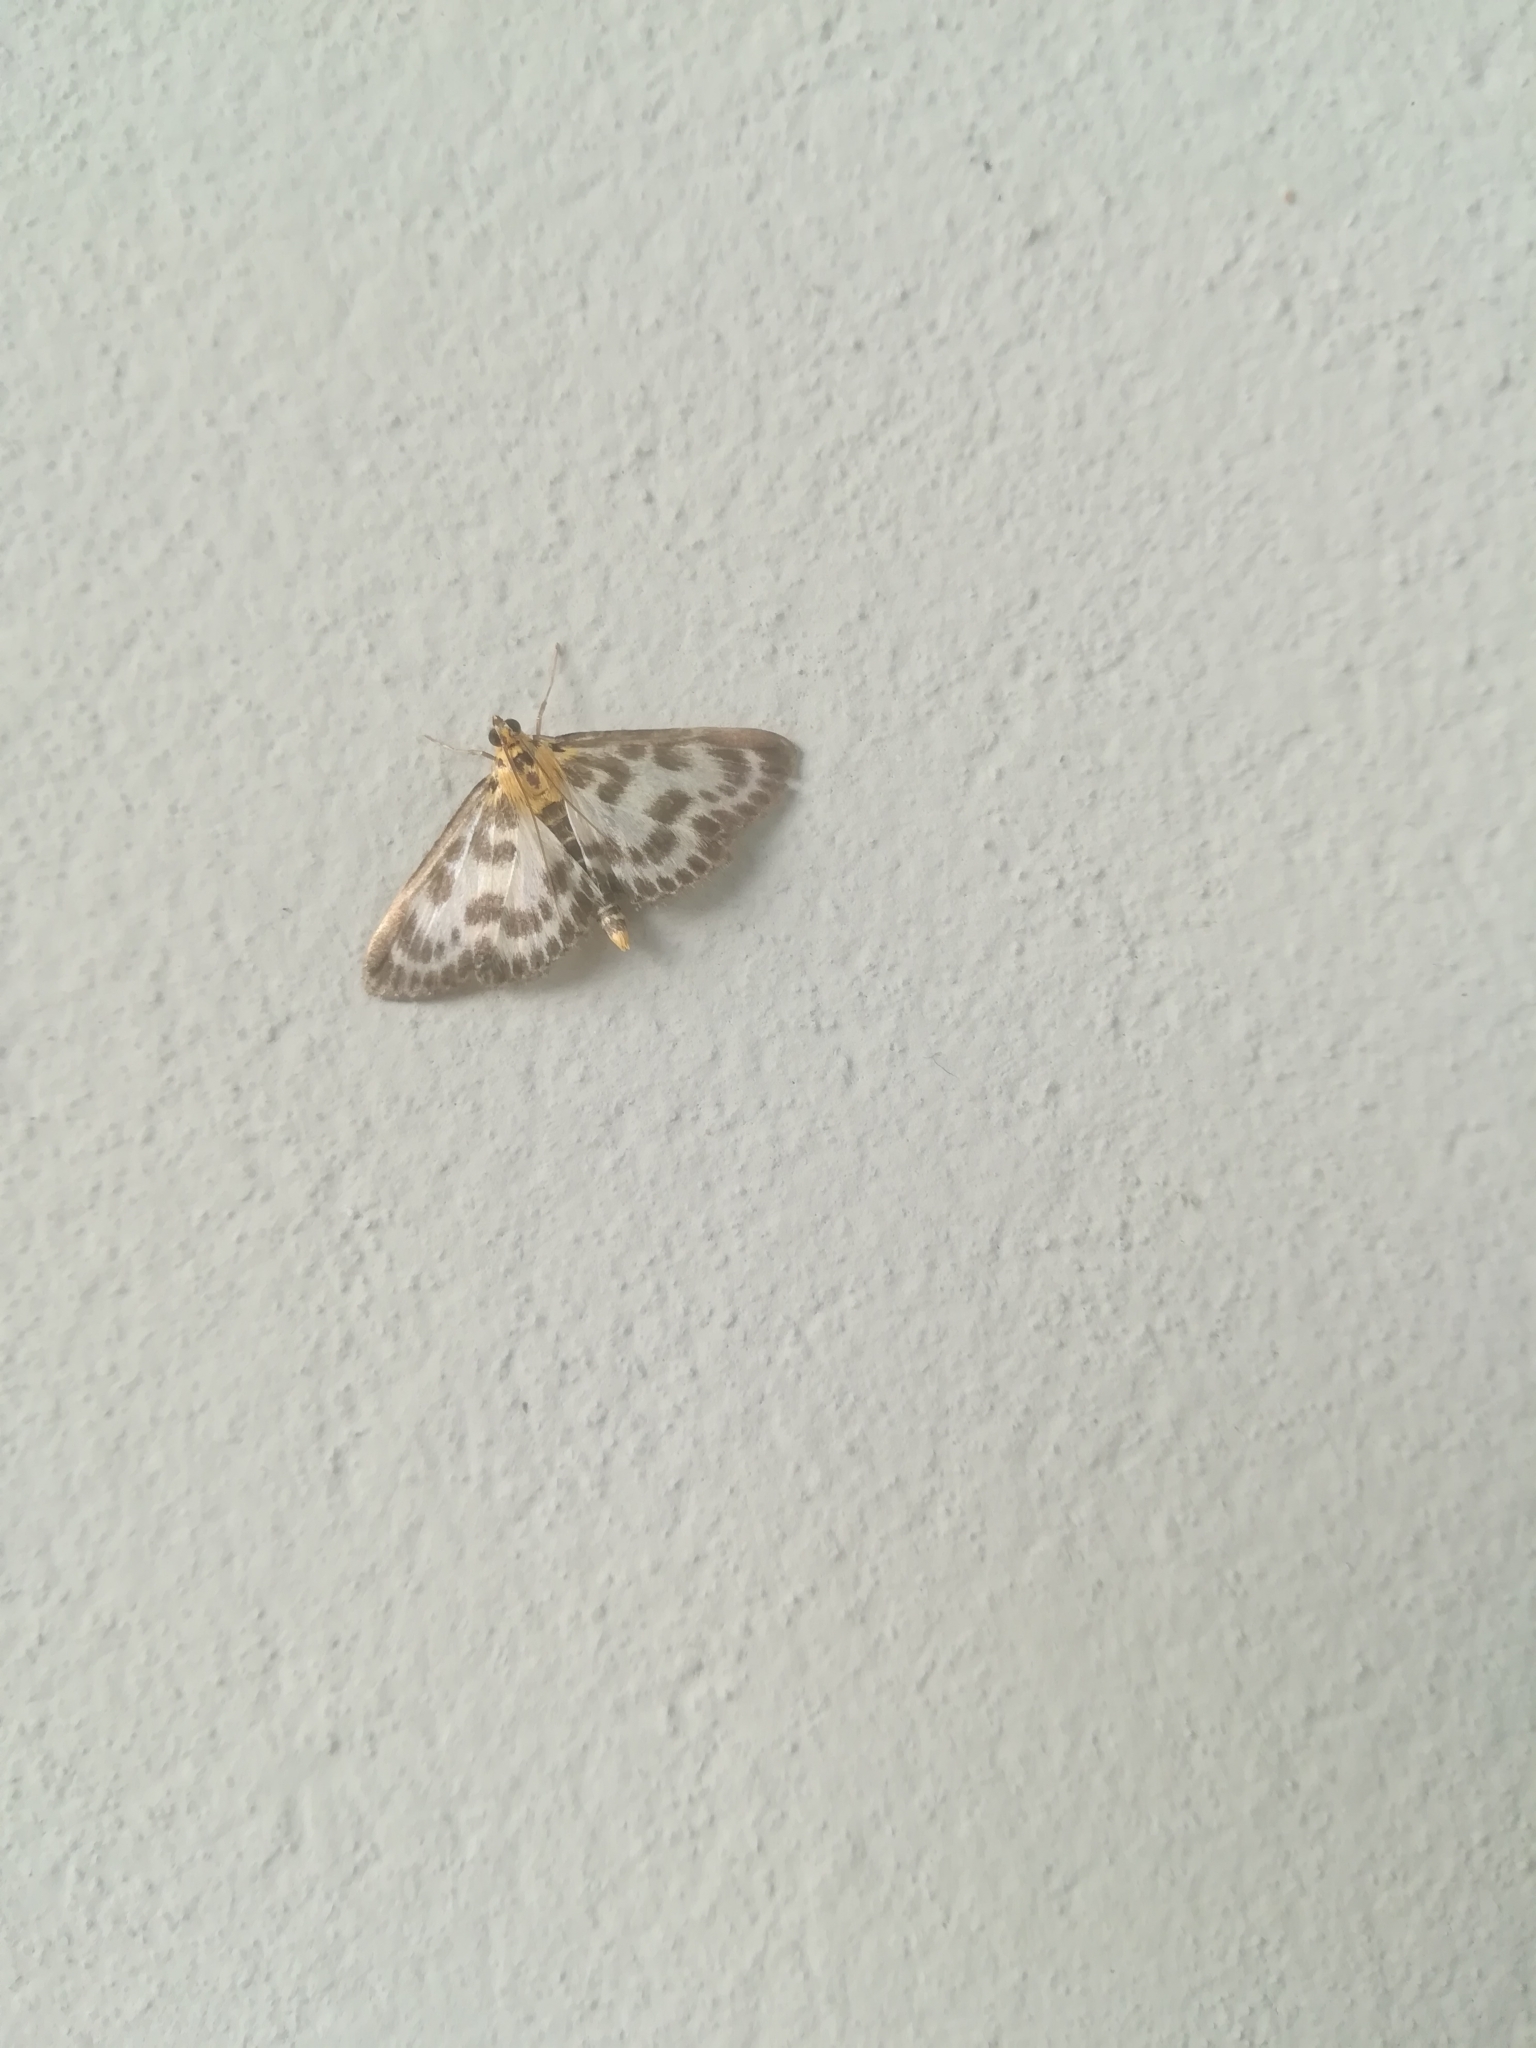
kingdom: Animalia
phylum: Arthropoda
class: Insecta
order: Lepidoptera
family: Crambidae
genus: Anania
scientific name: Anania hortulata
